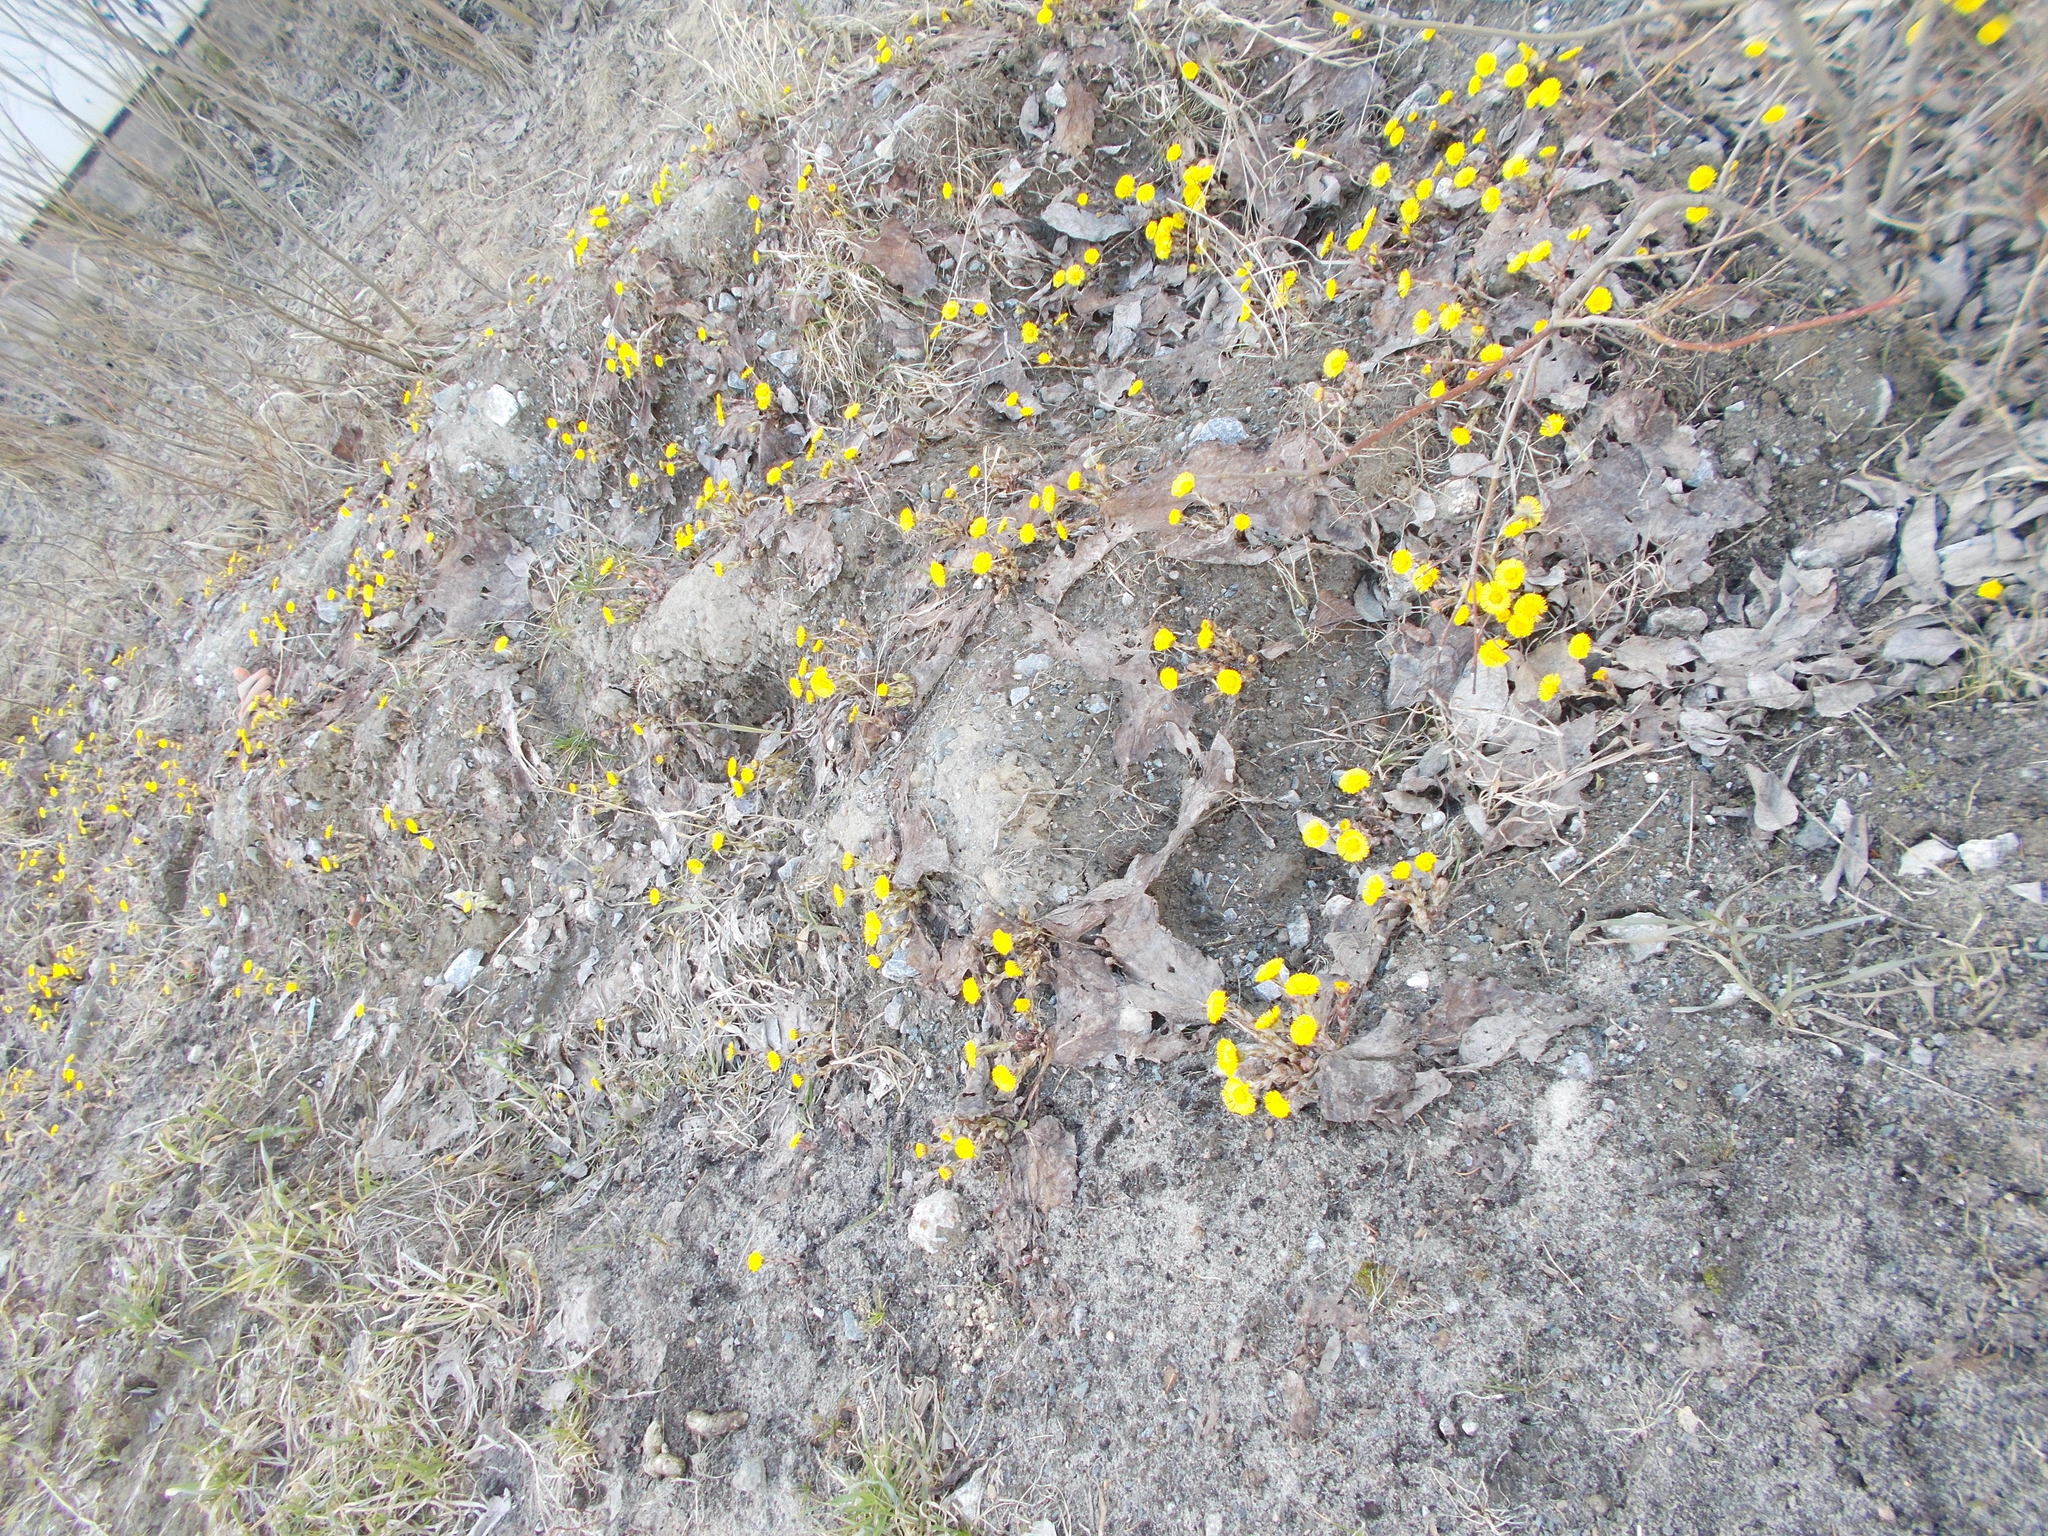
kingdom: Plantae
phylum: Tracheophyta
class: Magnoliopsida
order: Asterales
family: Asteraceae
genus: Tussilago
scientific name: Tussilago farfara
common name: Coltsfoot
